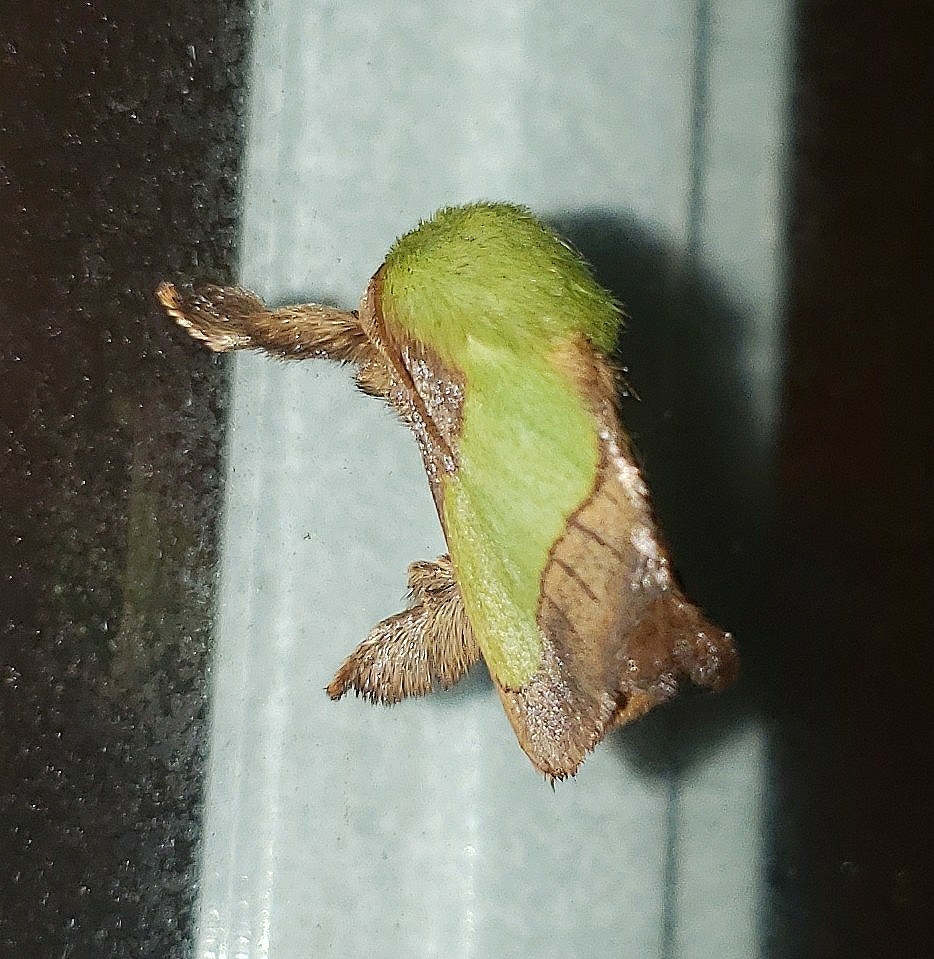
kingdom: Animalia
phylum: Arthropoda
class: Insecta
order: Lepidoptera
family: Limacodidae
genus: Parasa
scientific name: Parasa chloris
